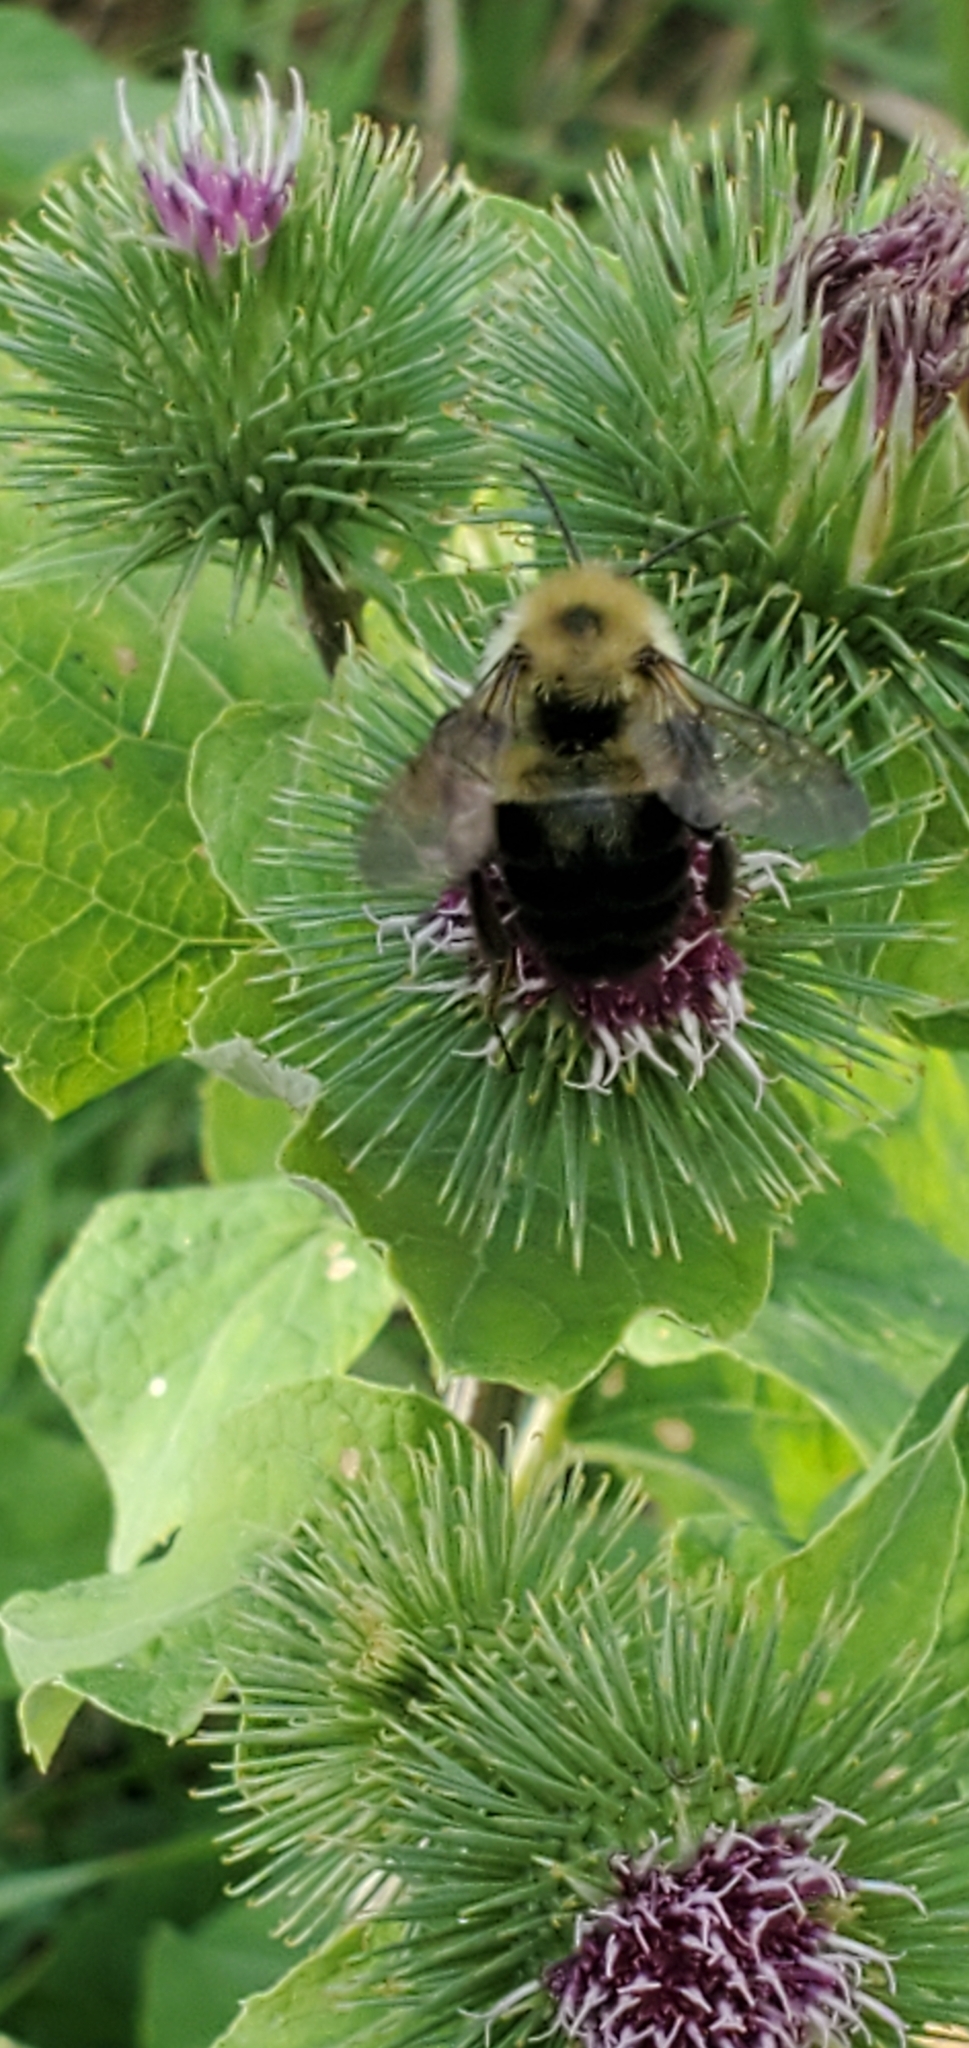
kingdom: Animalia
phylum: Arthropoda
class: Insecta
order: Hymenoptera
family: Apidae
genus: Bombus
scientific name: Bombus bimaculatus
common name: Two-spotted bumble bee
